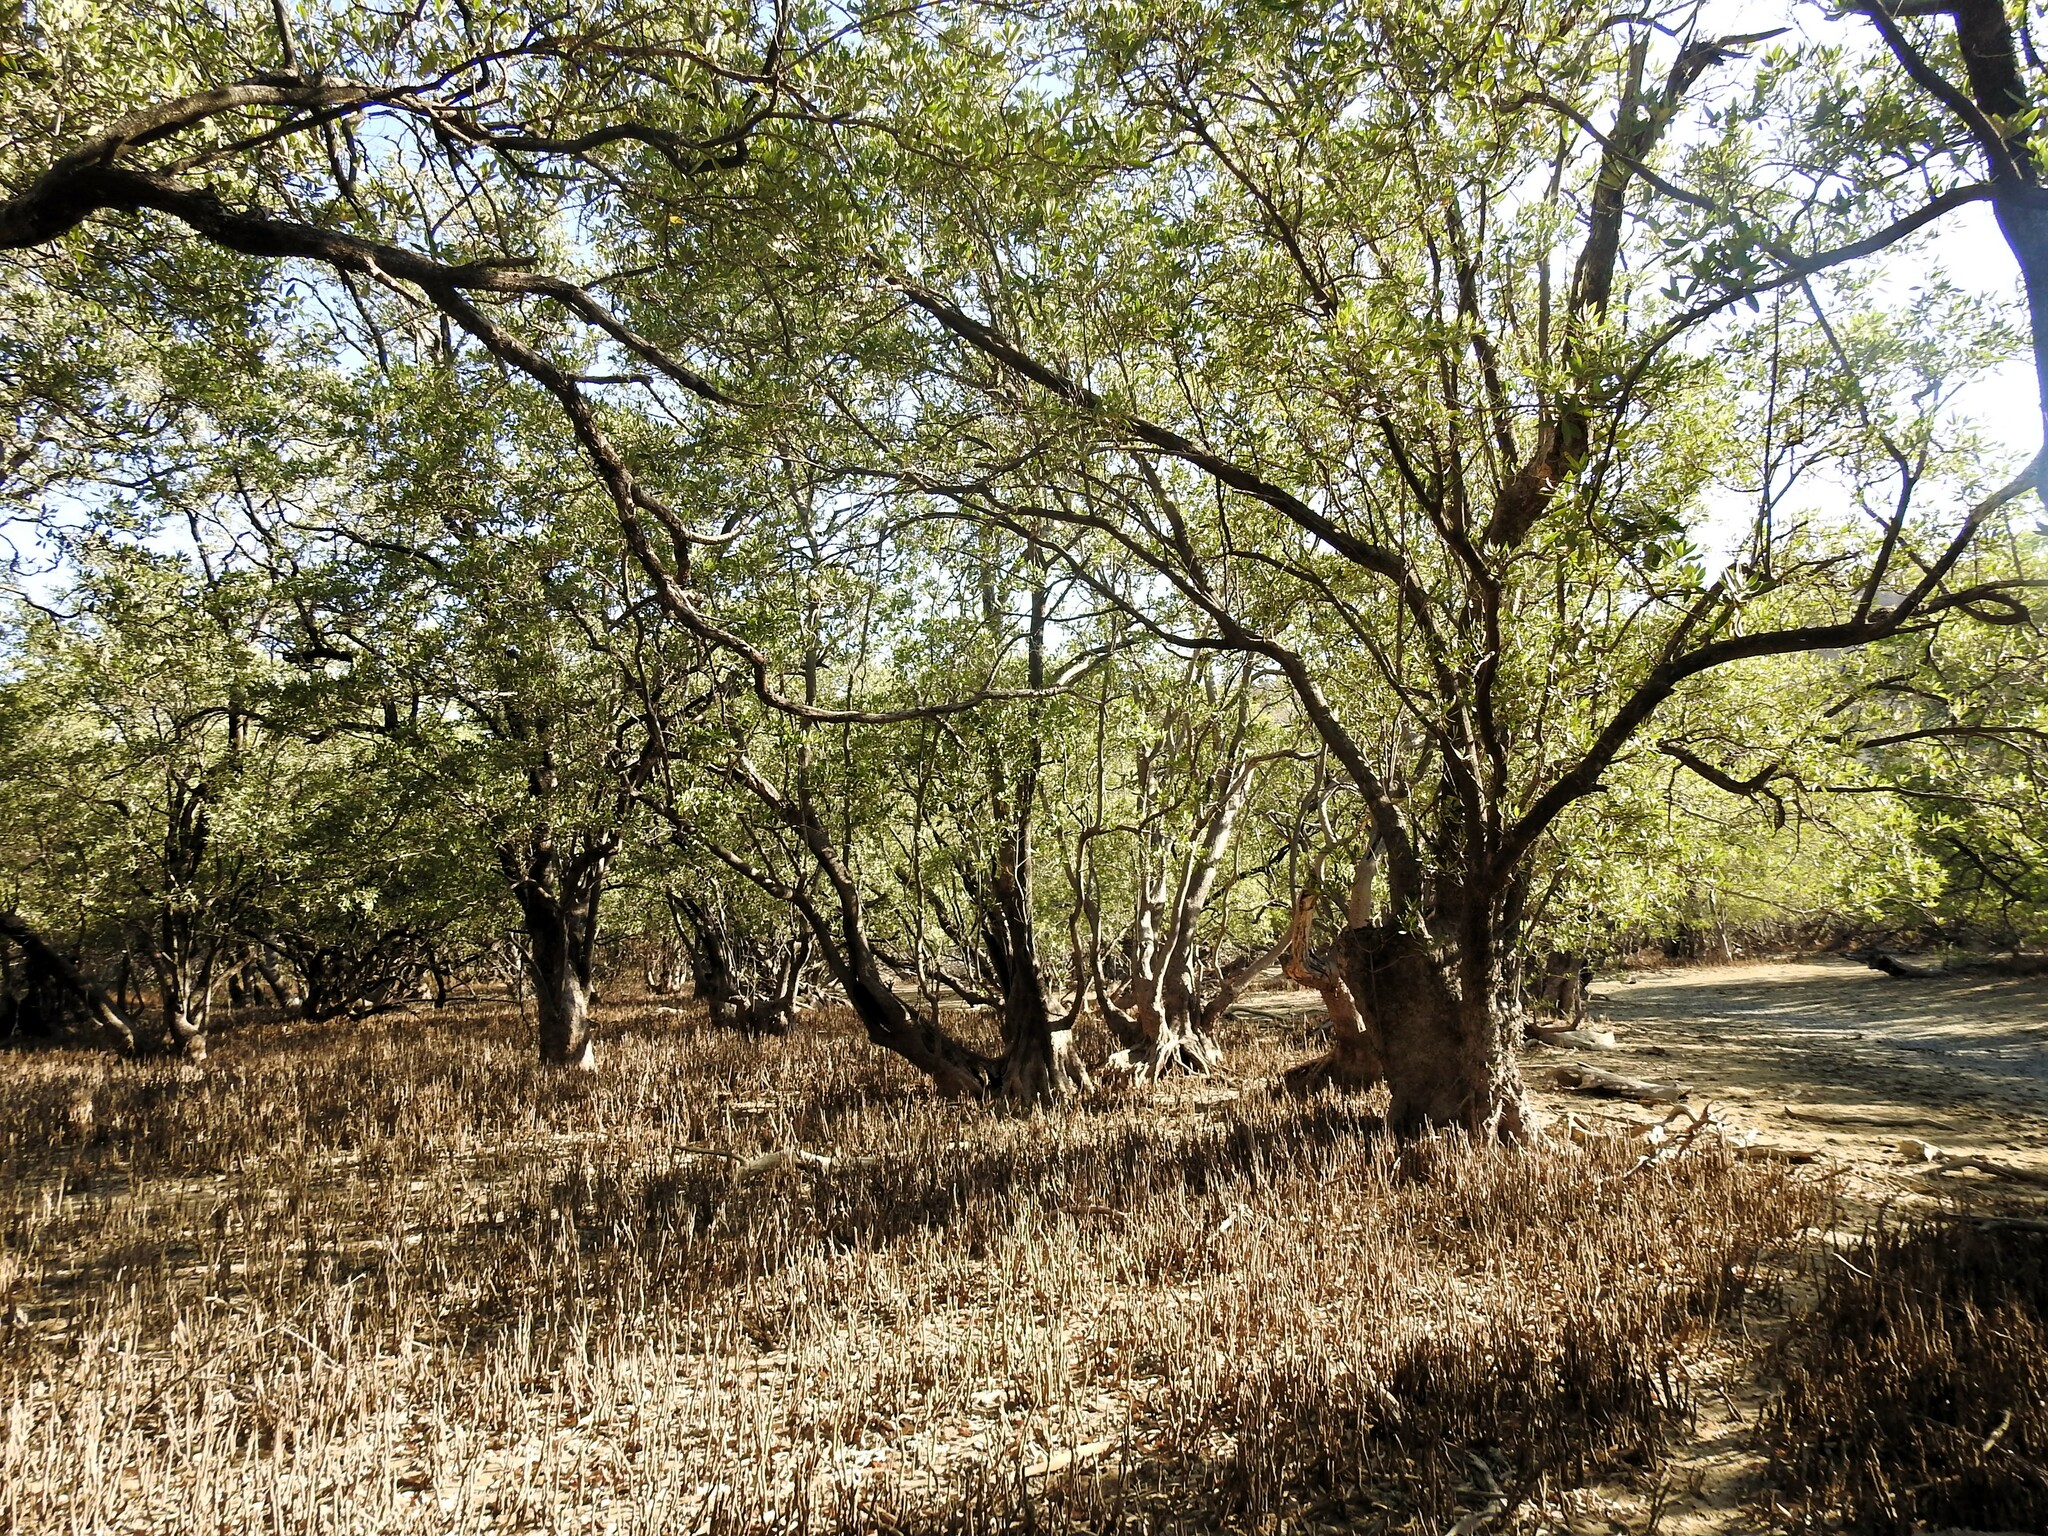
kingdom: Plantae
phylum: Tracheophyta
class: Magnoliopsida
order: Lamiales
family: Acanthaceae
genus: Avicennia
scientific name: Avicennia germinans
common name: Black mangrove
